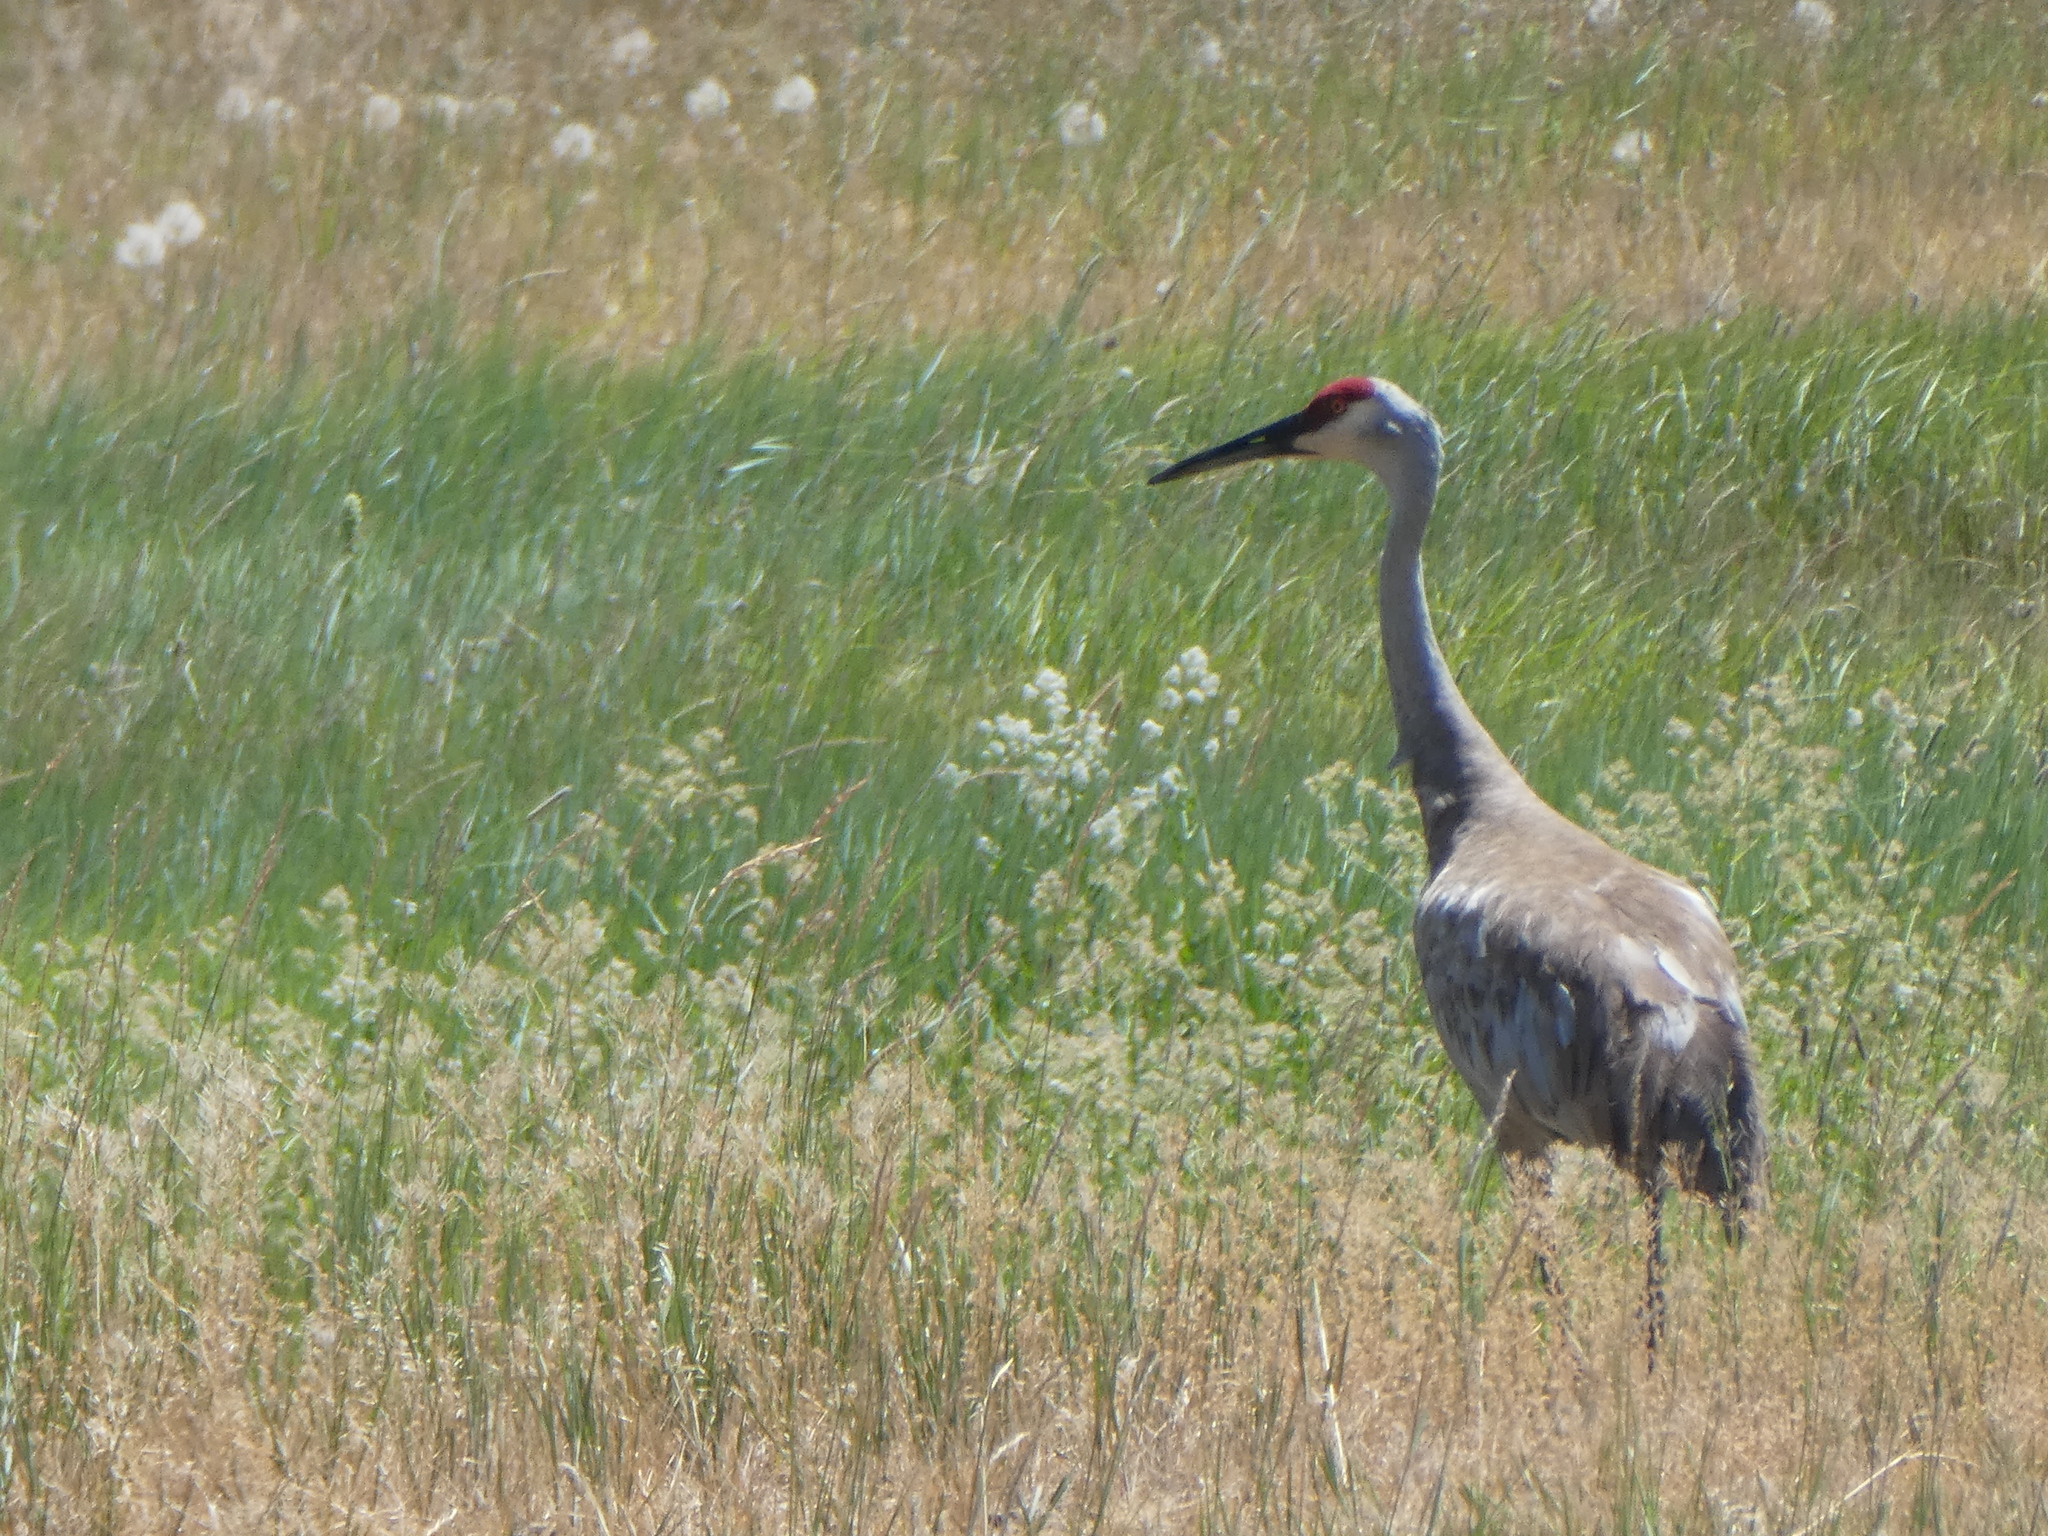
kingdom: Animalia
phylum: Chordata
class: Aves
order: Gruiformes
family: Gruidae
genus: Grus
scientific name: Grus canadensis
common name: Sandhill crane
